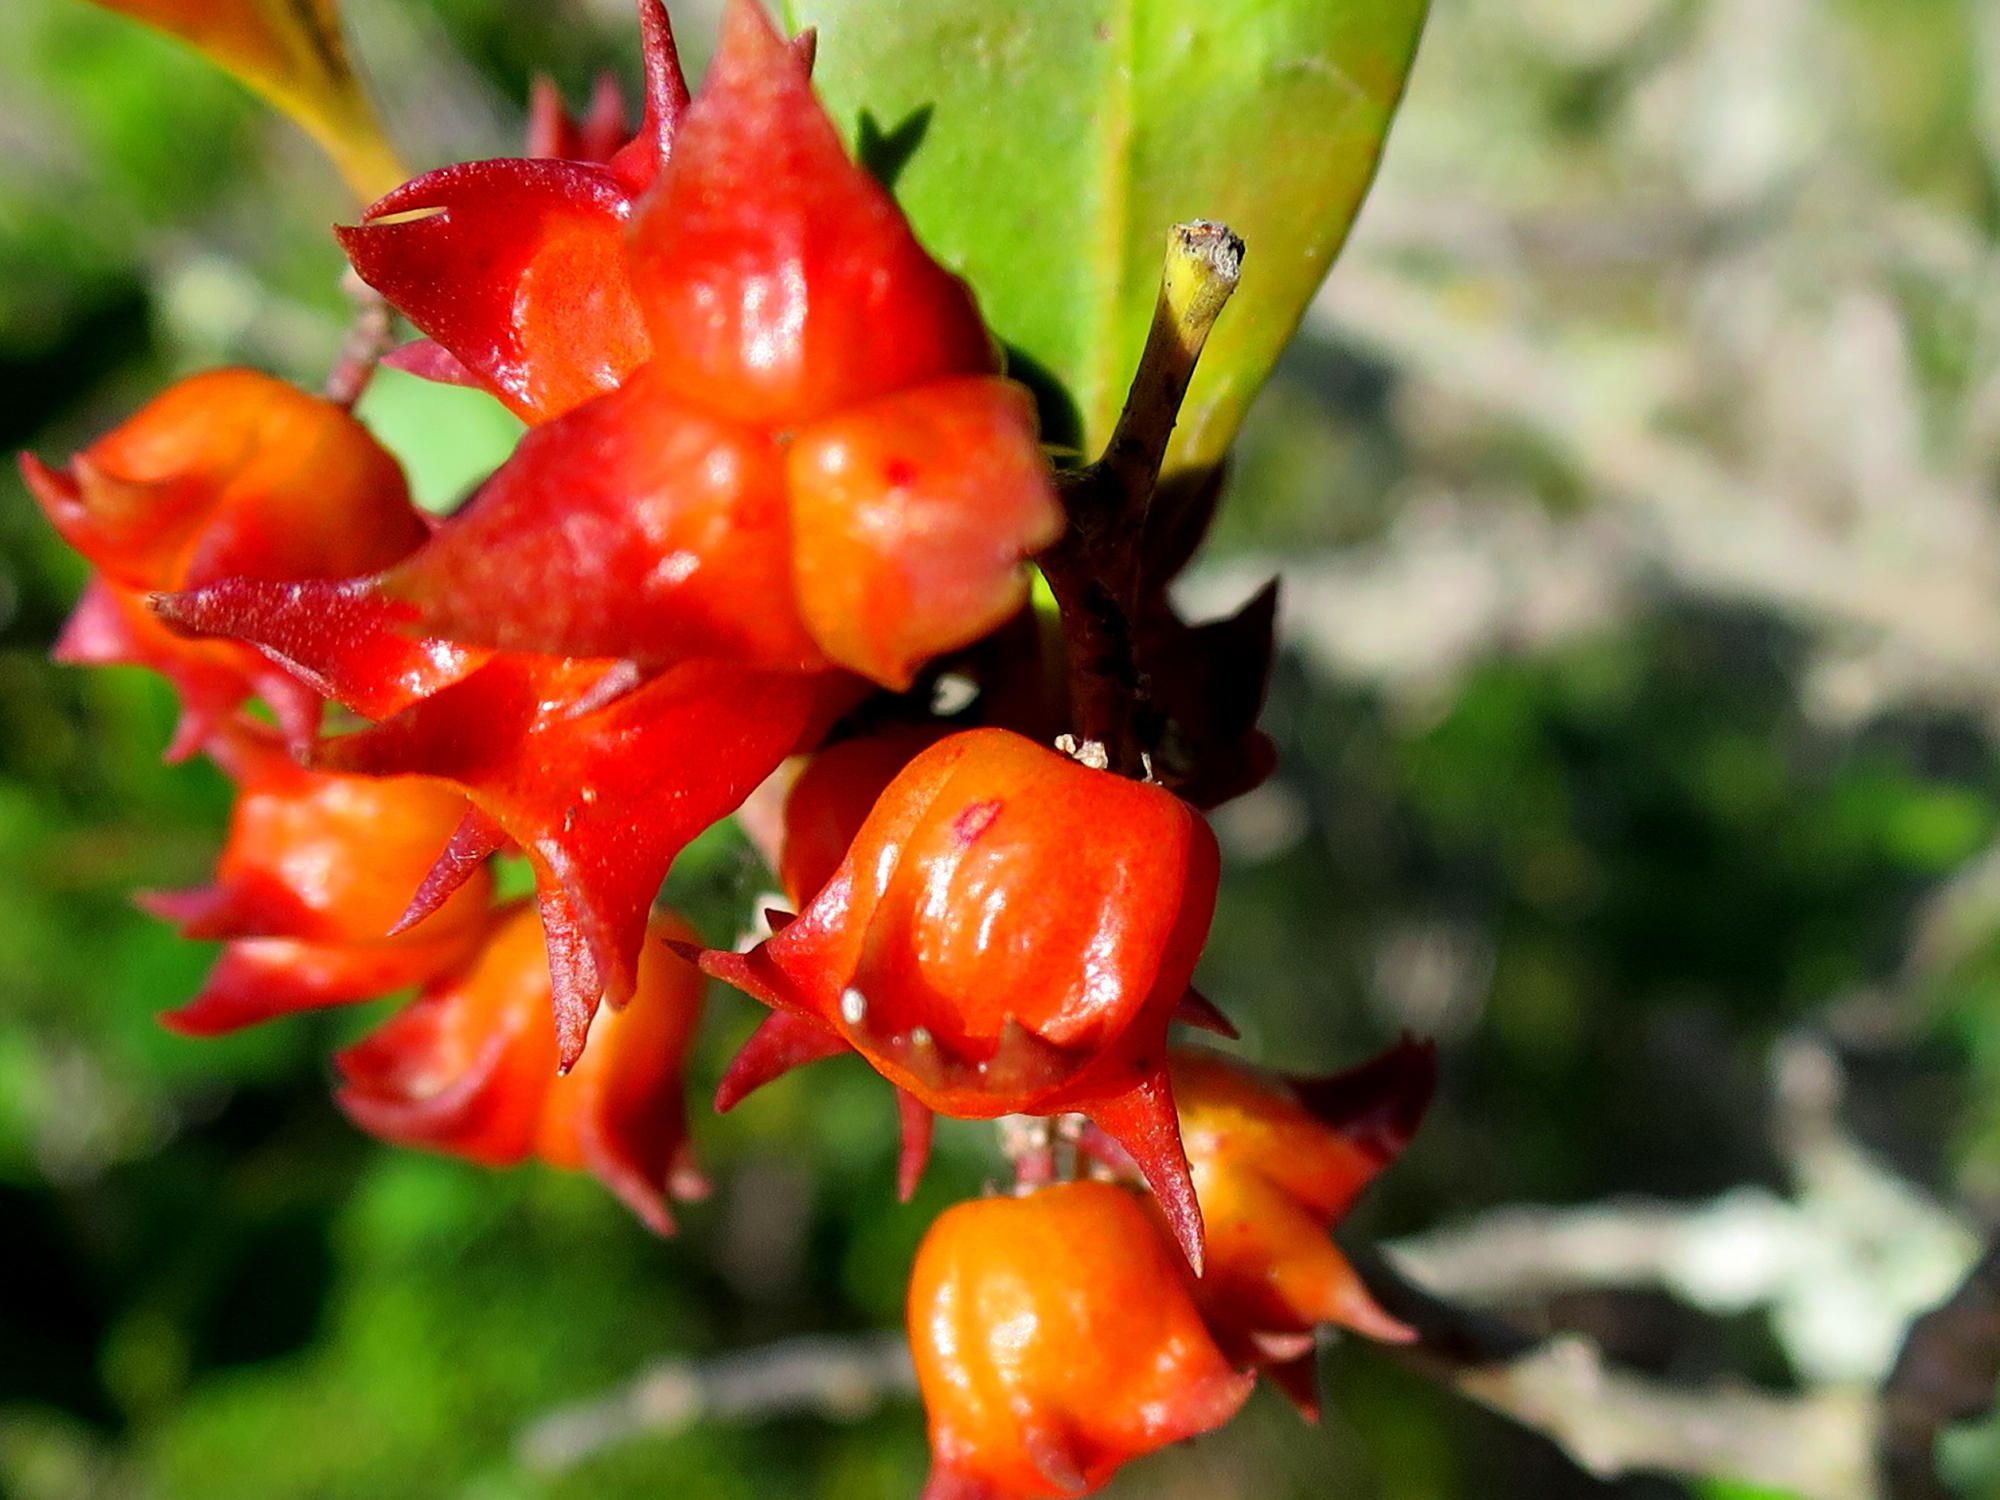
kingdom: Plantae
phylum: Tracheophyta
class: Magnoliopsida
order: Celastrales
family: Celastraceae
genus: Pterocelastrus
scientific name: Pterocelastrus tricuspidatus
